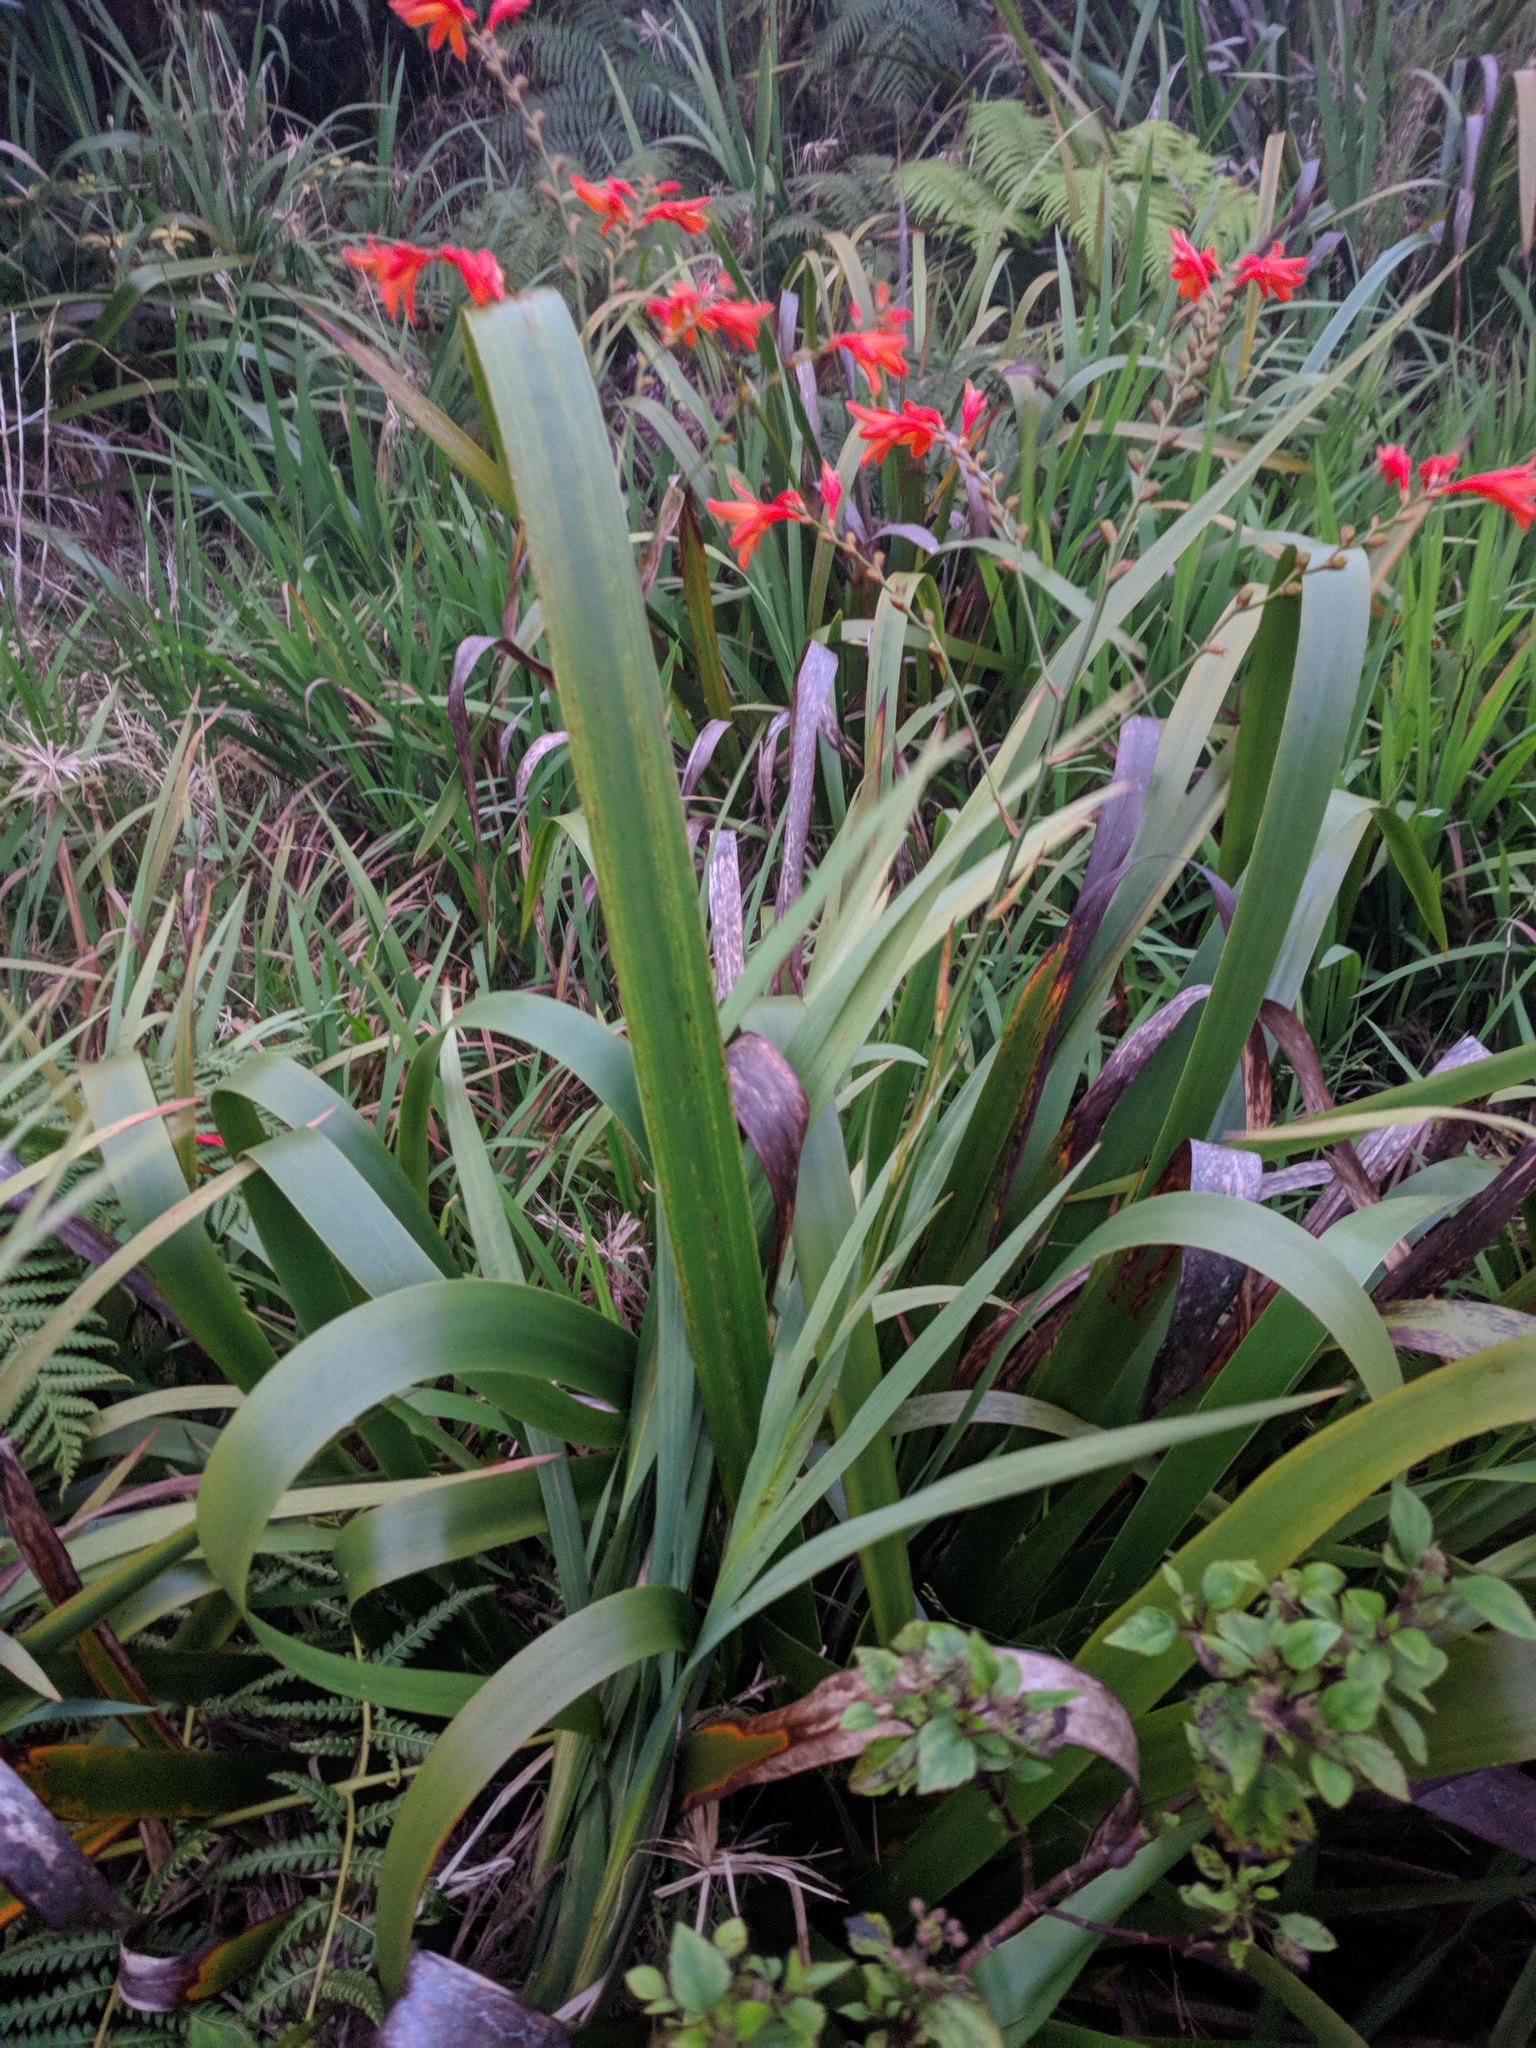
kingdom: Plantae
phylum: Tracheophyta
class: Liliopsida
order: Asparagales
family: Iridaceae
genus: Crocosmia
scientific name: Crocosmia crocosmiiflora
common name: Montbretia
